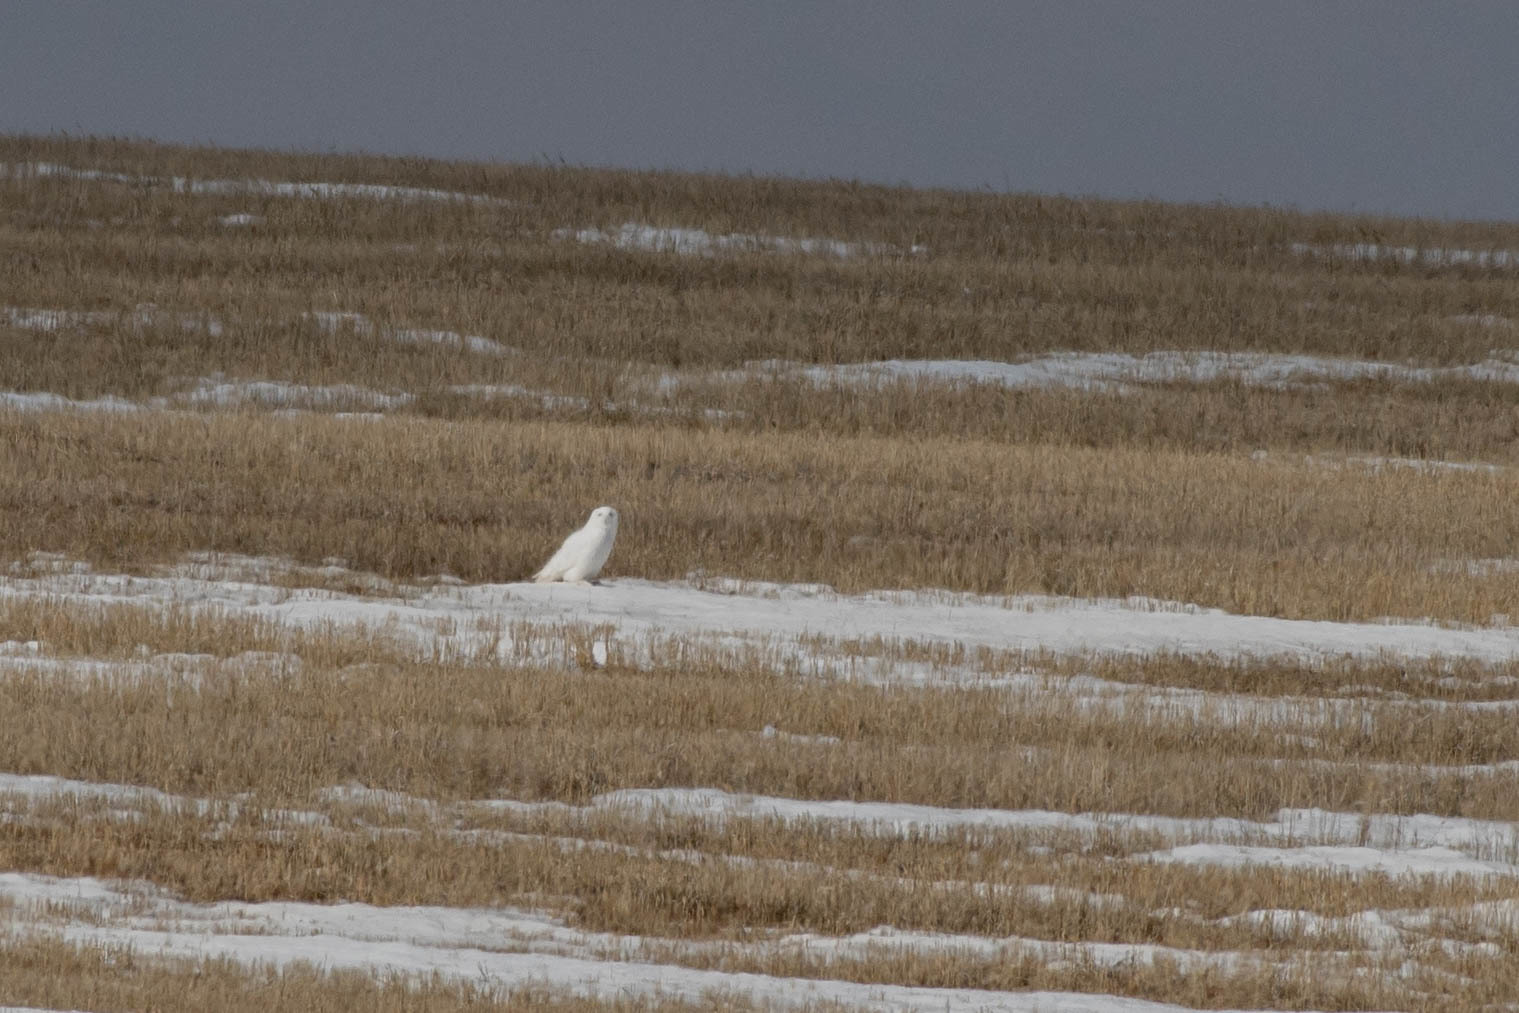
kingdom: Animalia
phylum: Chordata
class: Aves
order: Strigiformes
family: Strigidae
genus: Bubo
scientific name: Bubo scandiacus
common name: Snowy owl
